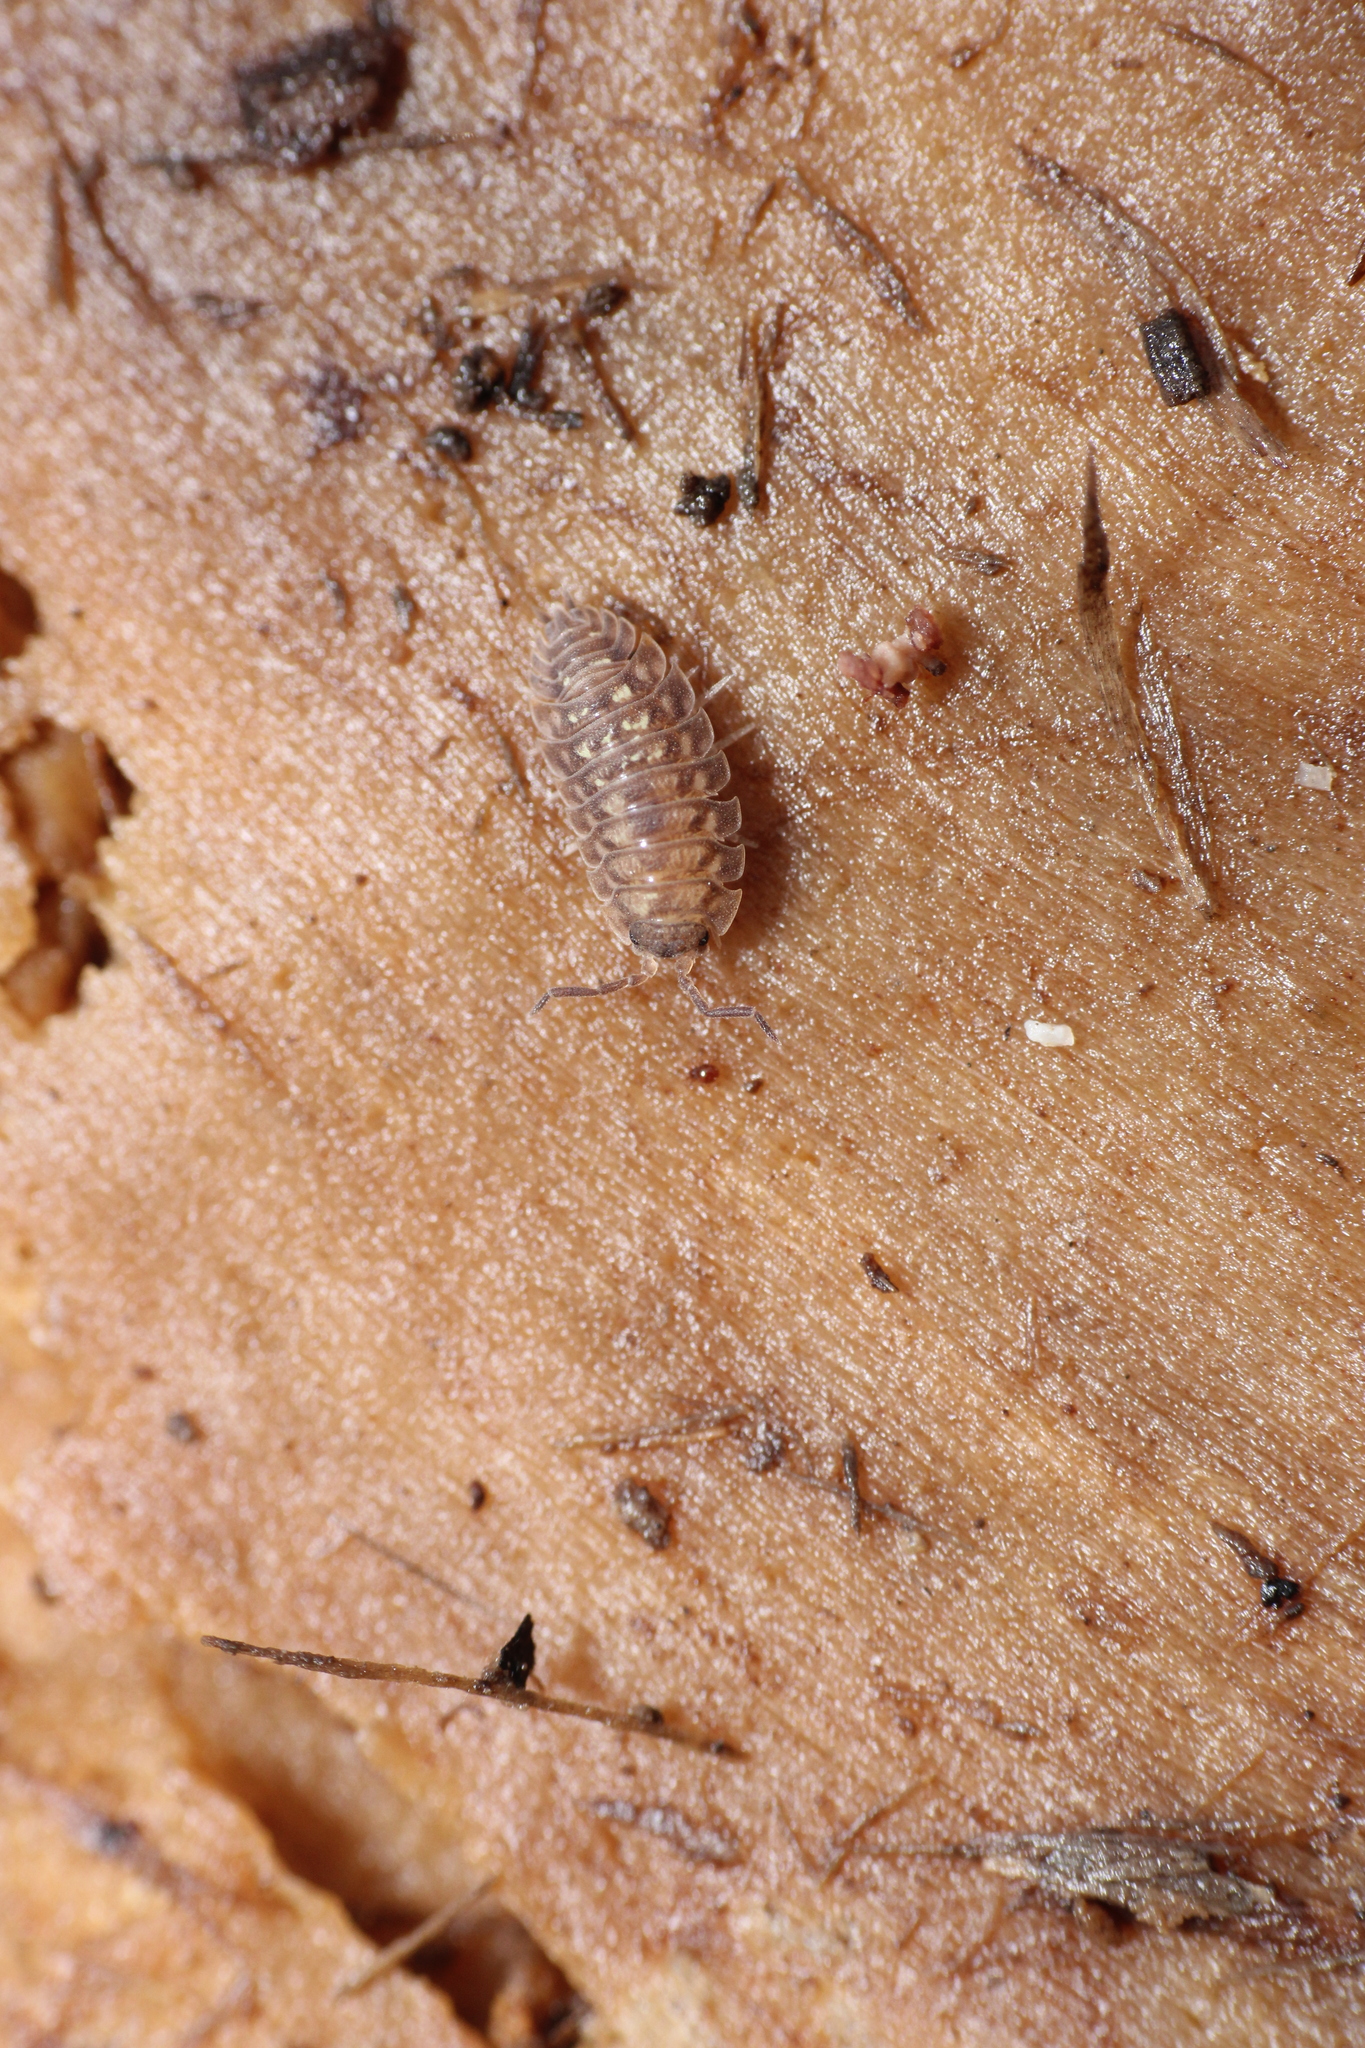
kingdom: Animalia
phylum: Arthropoda
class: Malacostraca
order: Isopoda
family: Oniscidae
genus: Oniscus
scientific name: Oniscus asellus
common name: Common shiny woodlouse
